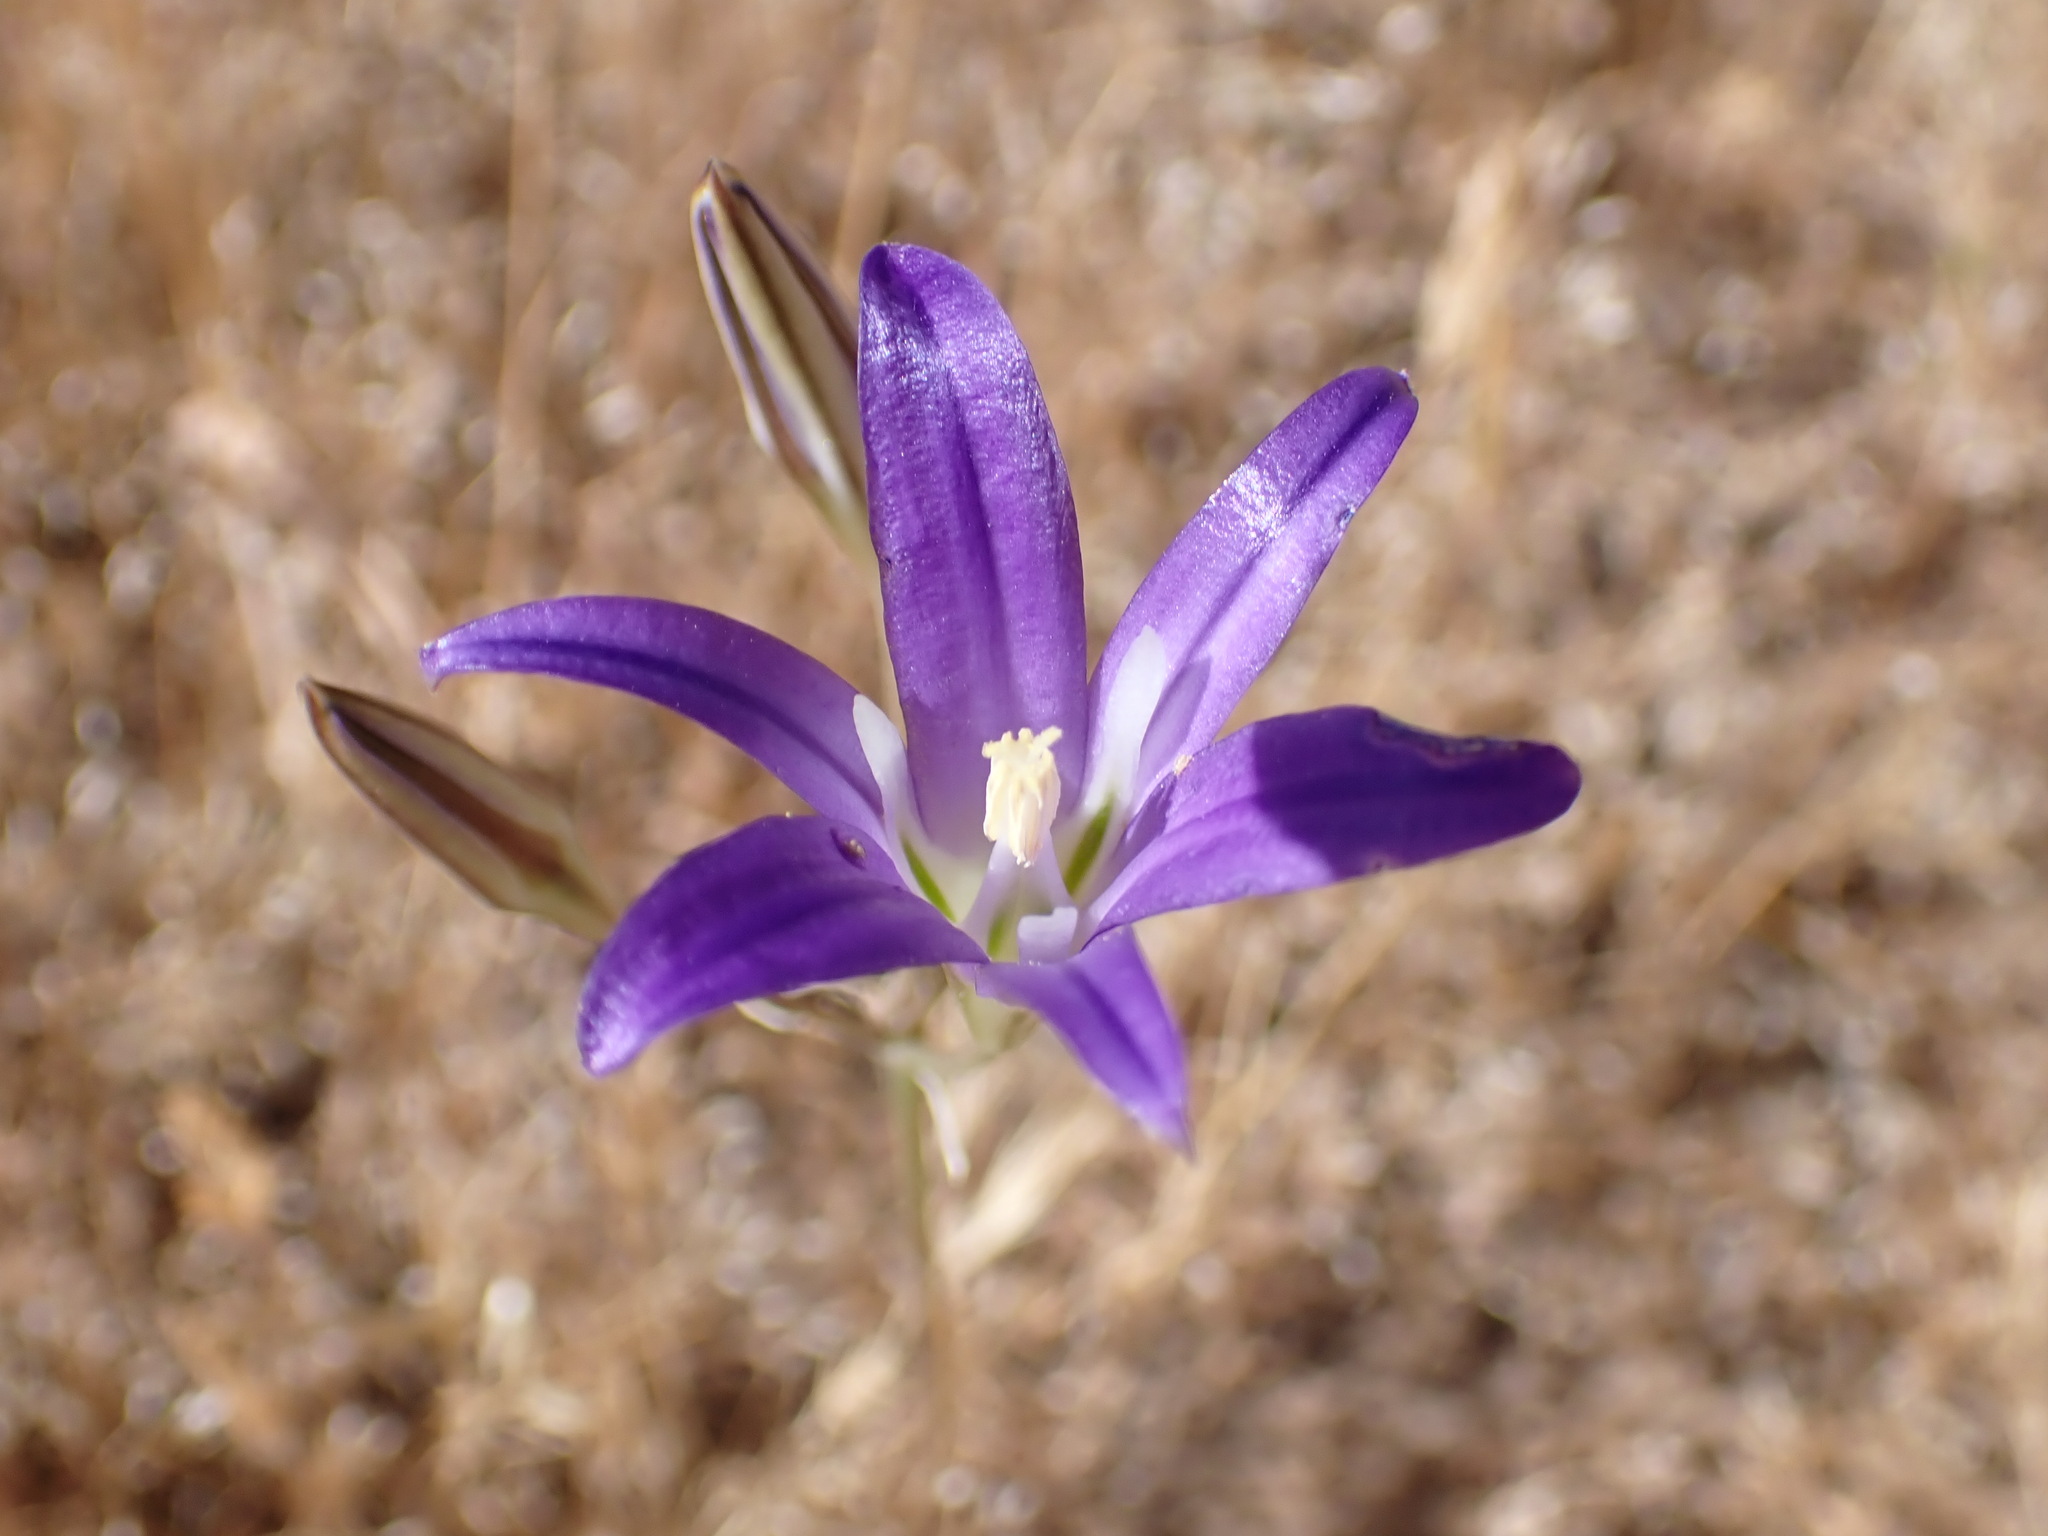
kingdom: Plantae
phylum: Tracheophyta
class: Liliopsida
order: Asparagales
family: Asparagaceae
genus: Brodiaea
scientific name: Brodiaea elegans
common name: Elegant cluster-lily
